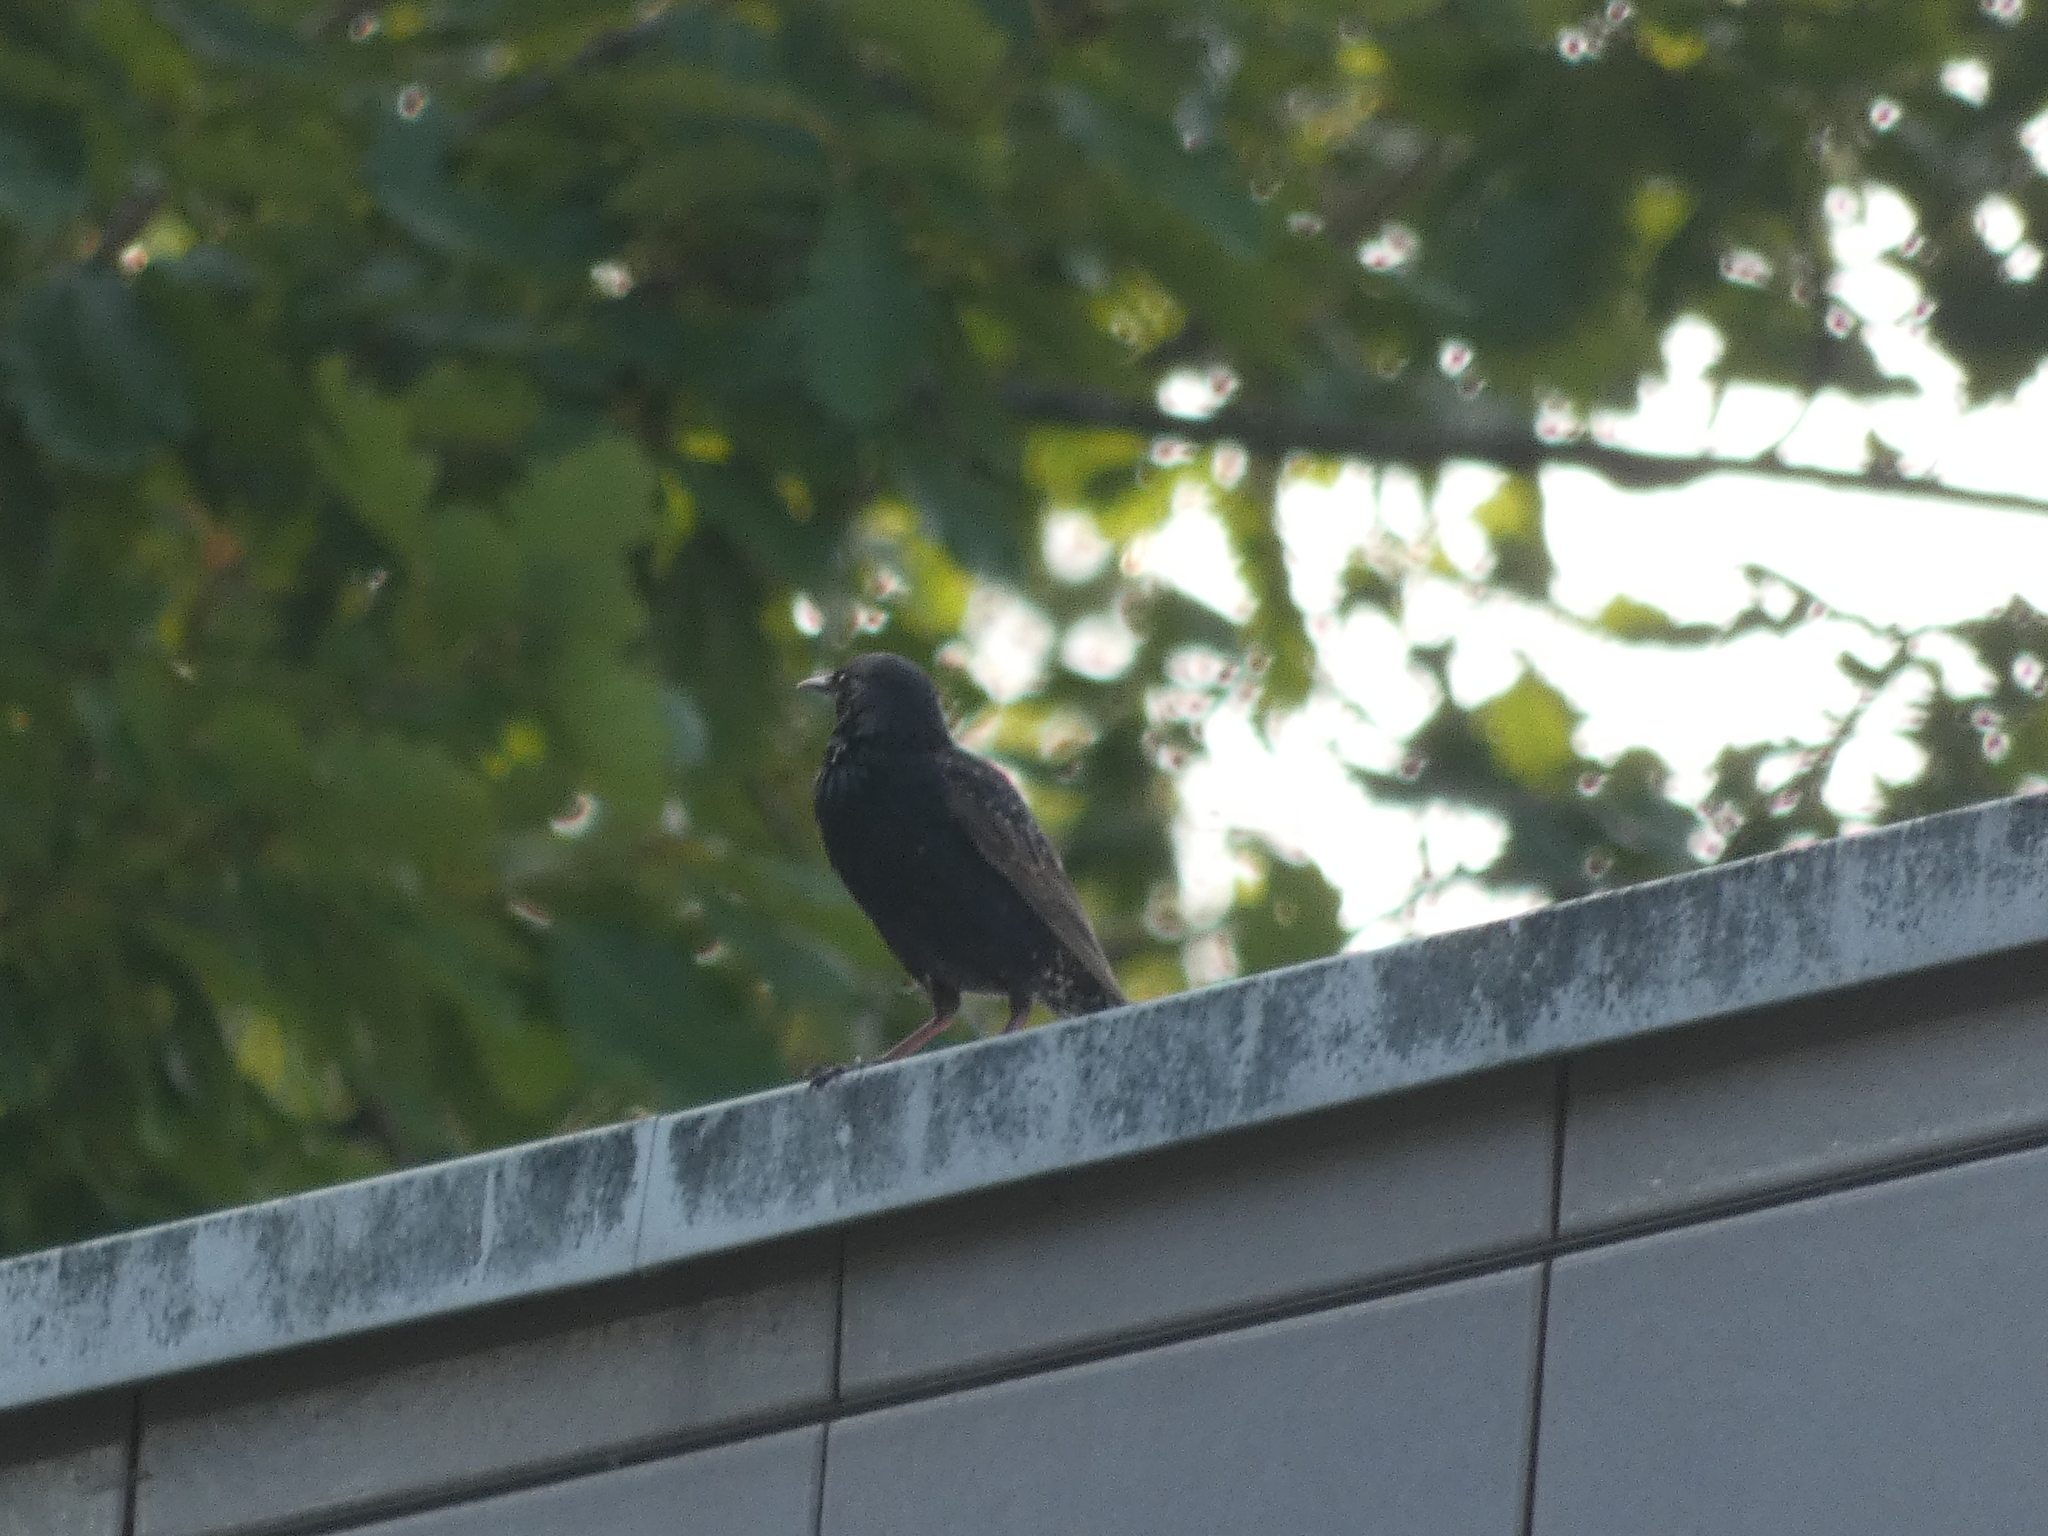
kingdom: Animalia
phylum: Chordata
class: Aves
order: Passeriformes
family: Sturnidae
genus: Sturnus
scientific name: Sturnus vulgaris
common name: Common starling
